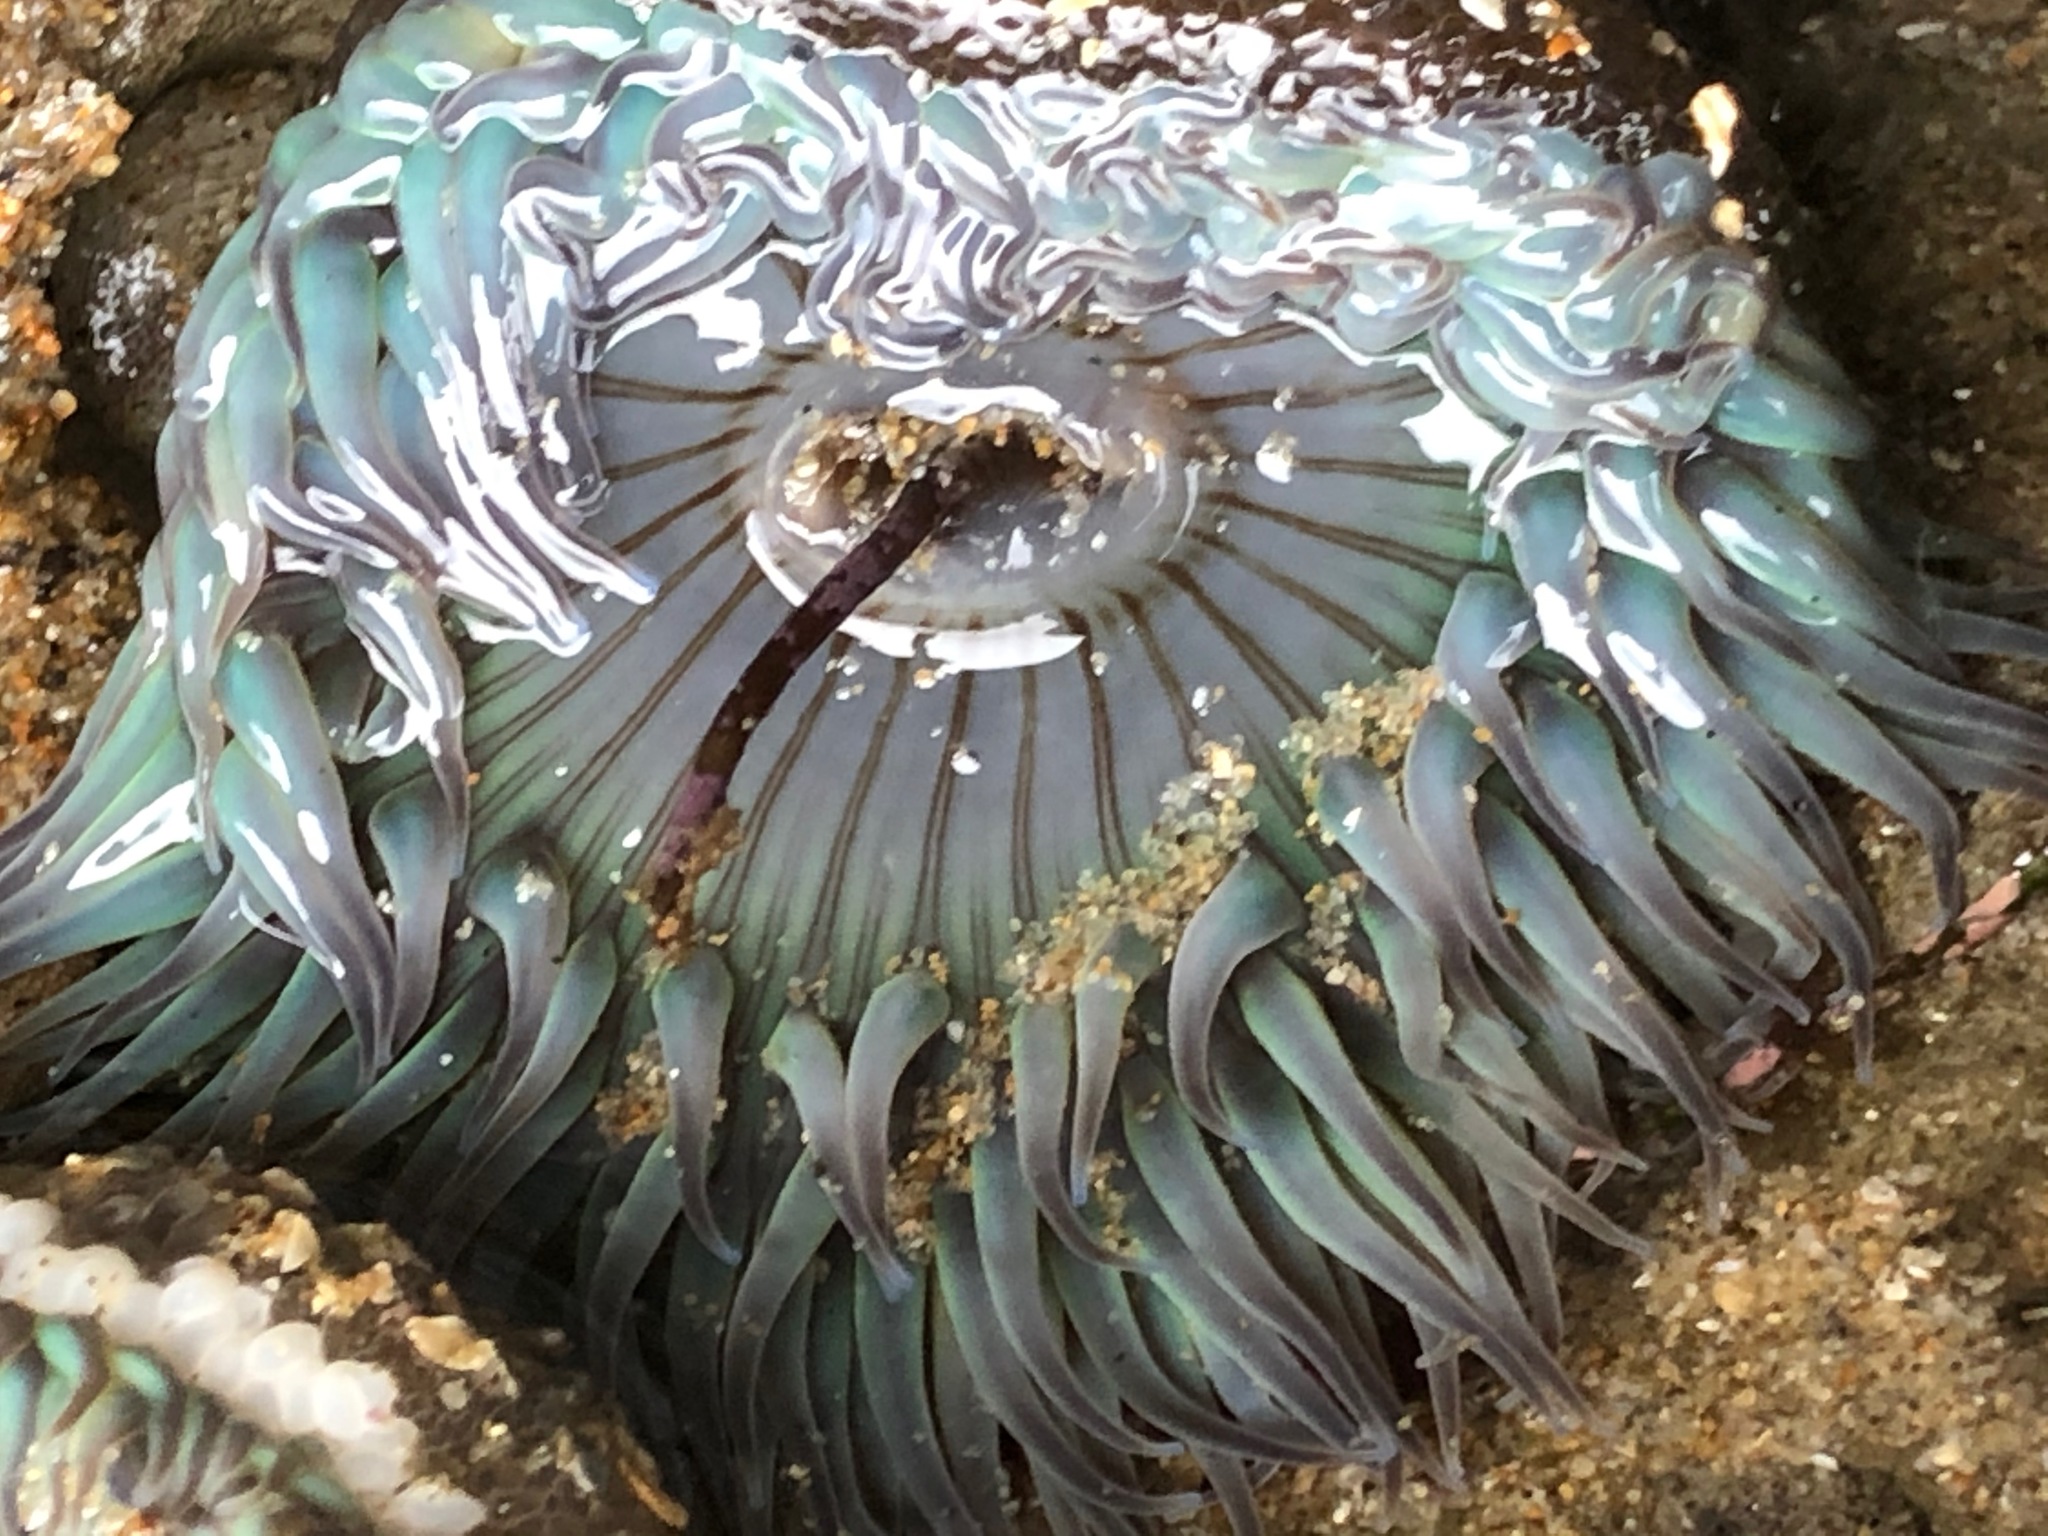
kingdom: Animalia
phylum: Cnidaria
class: Anthozoa
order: Actiniaria
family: Actiniidae
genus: Anthopleura
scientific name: Anthopleura sola
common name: Sun anemone
